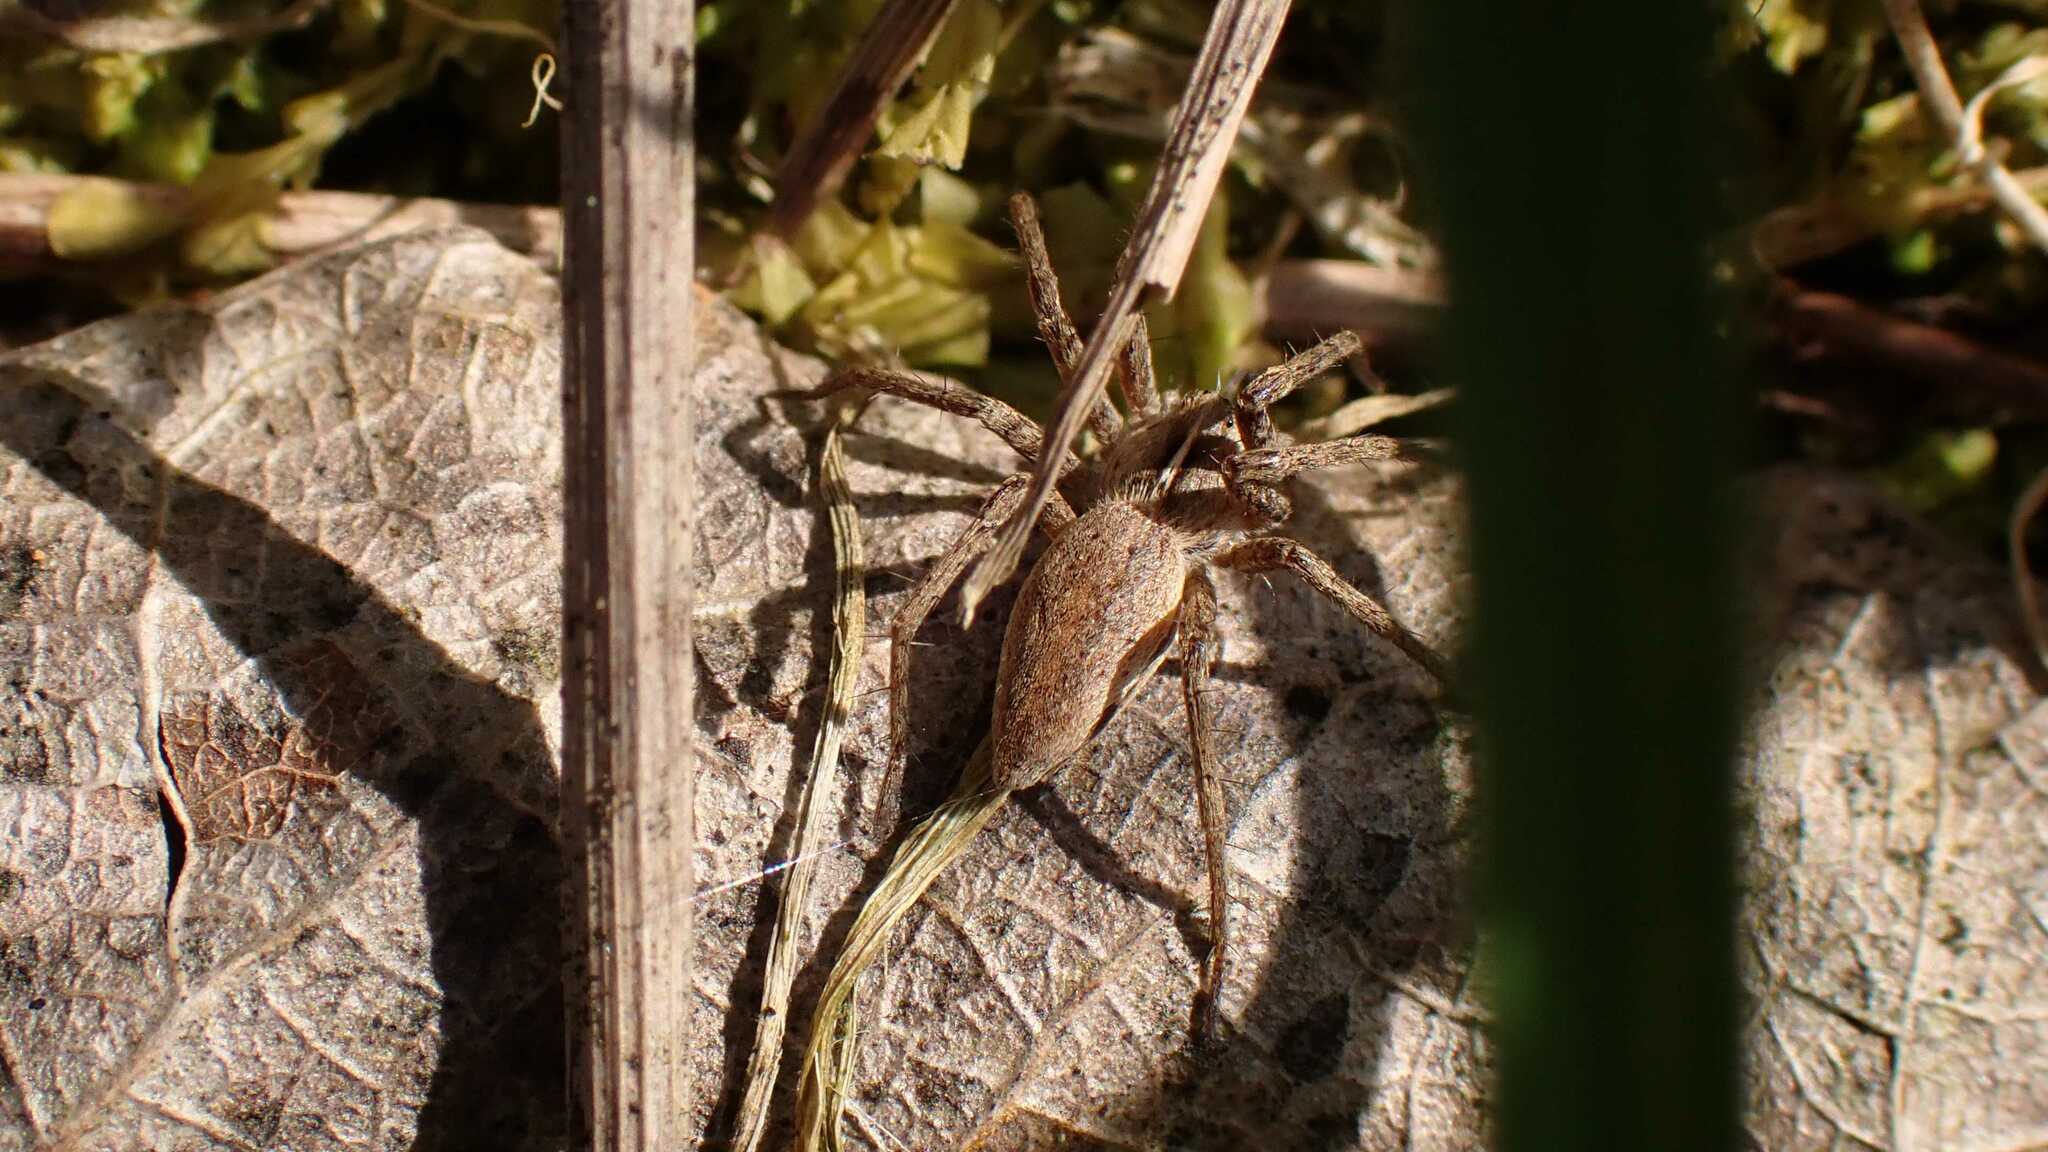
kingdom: Animalia
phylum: Arthropoda
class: Arachnida
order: Araneae
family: Pisauridae
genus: Pisaura
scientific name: Pisaura mirabilis
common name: Tent spider
